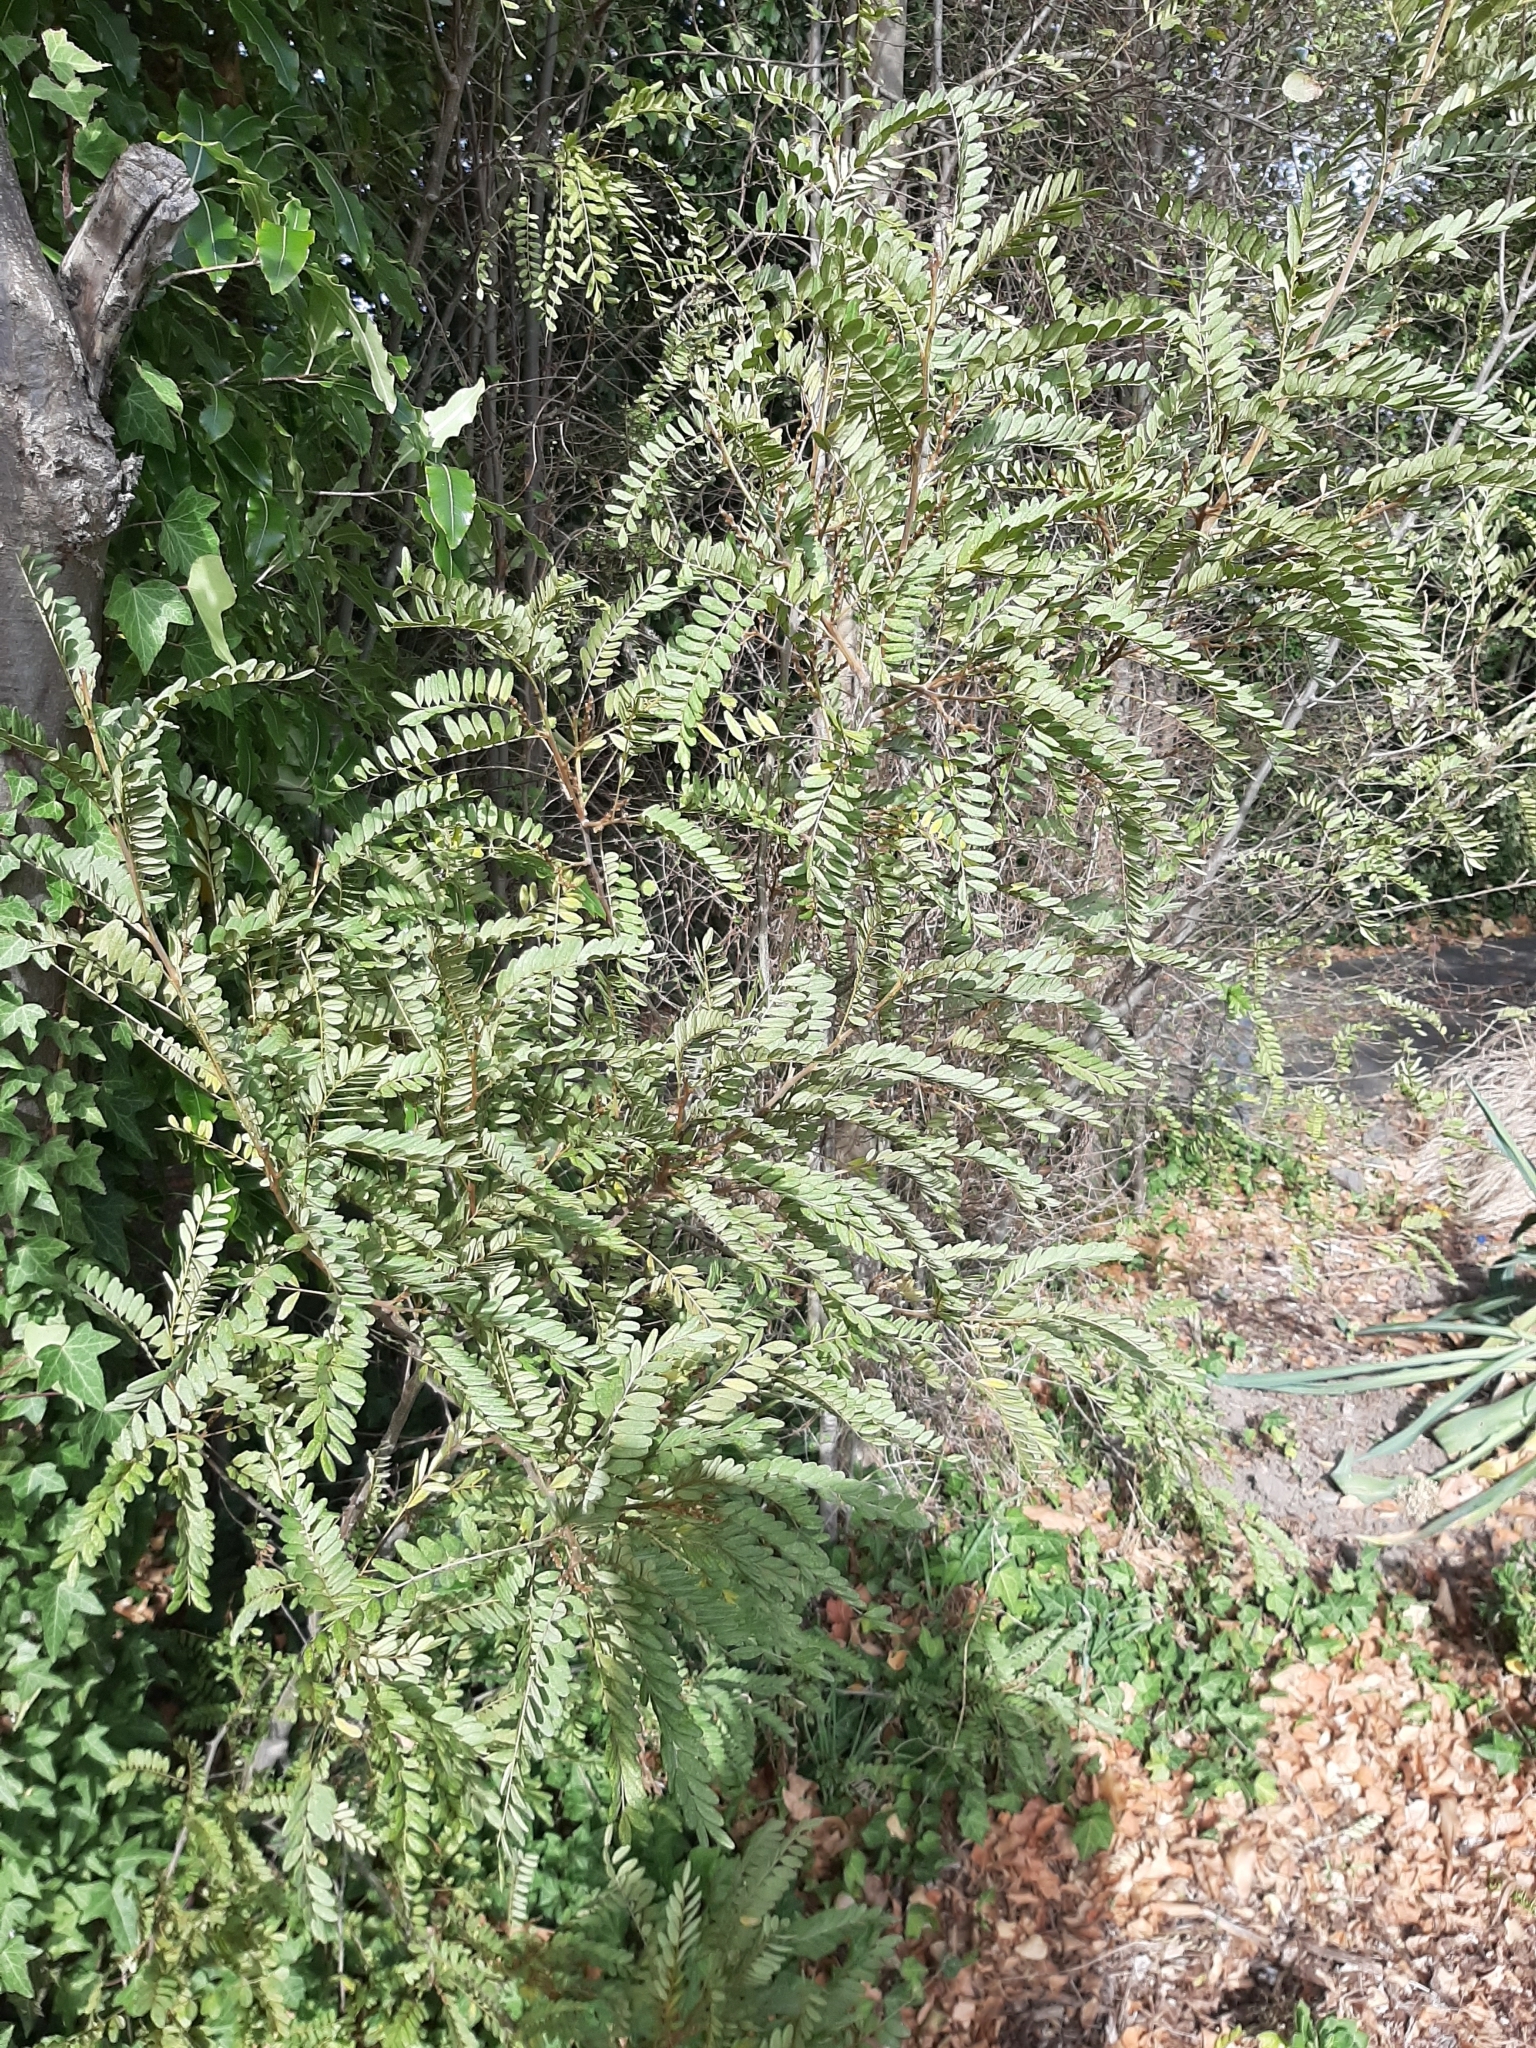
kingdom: Plantae
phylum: Tracheophyta
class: Magnoliopsida
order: Fabales
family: Fabaceae
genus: Sophora
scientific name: Sophora tetraptera
